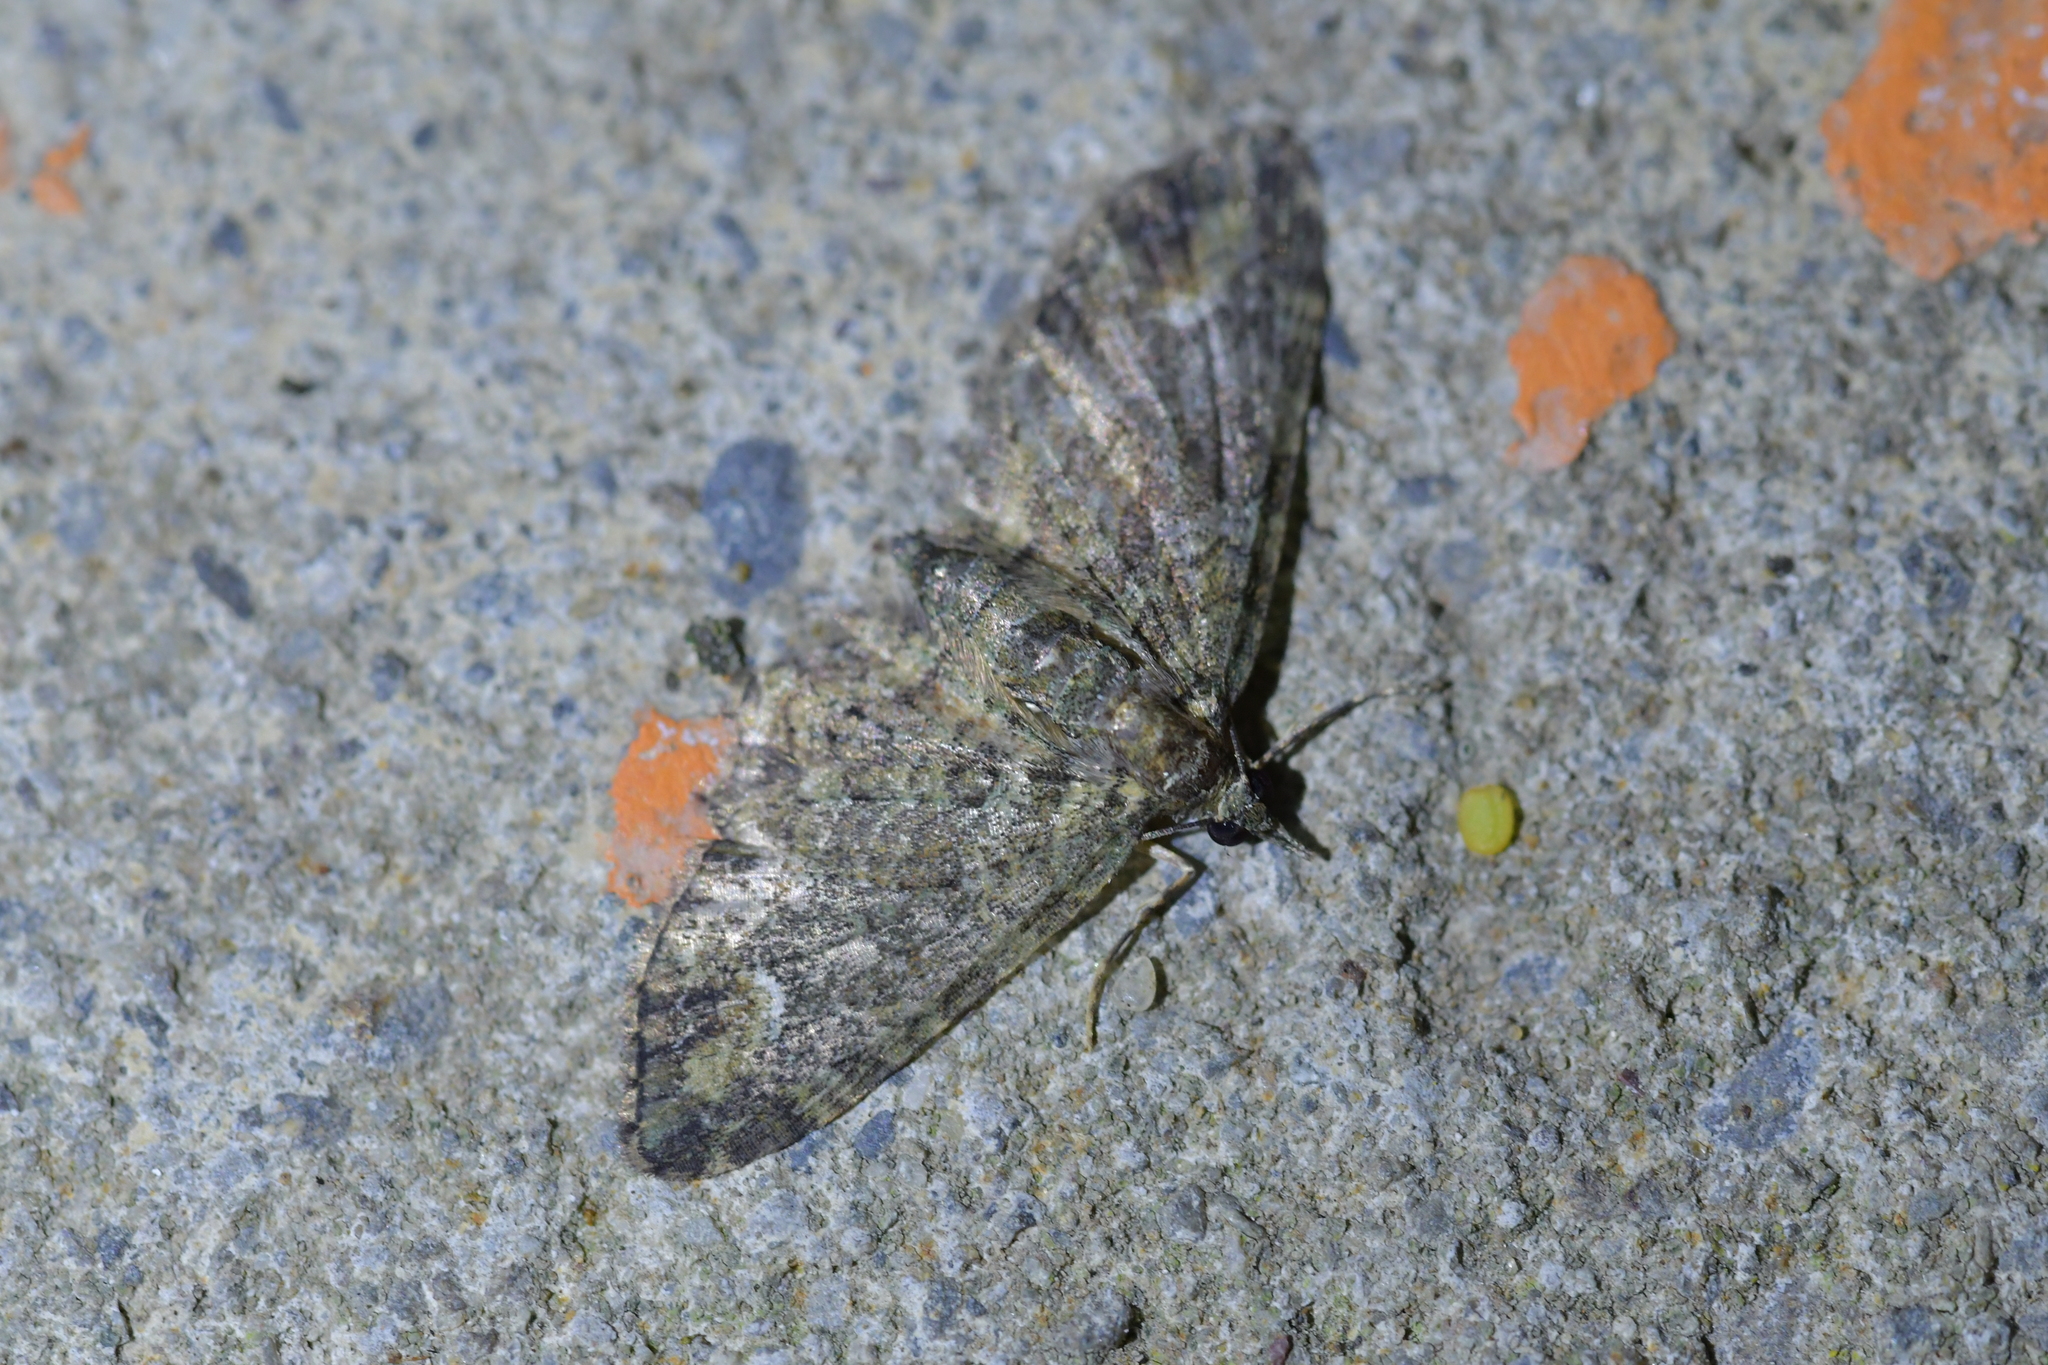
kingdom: Animalia
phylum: Arthropoda
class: Insecta
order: Lepidoptera
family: Geometridae
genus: Pasiphilodes
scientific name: Pasiphilodes testulata
